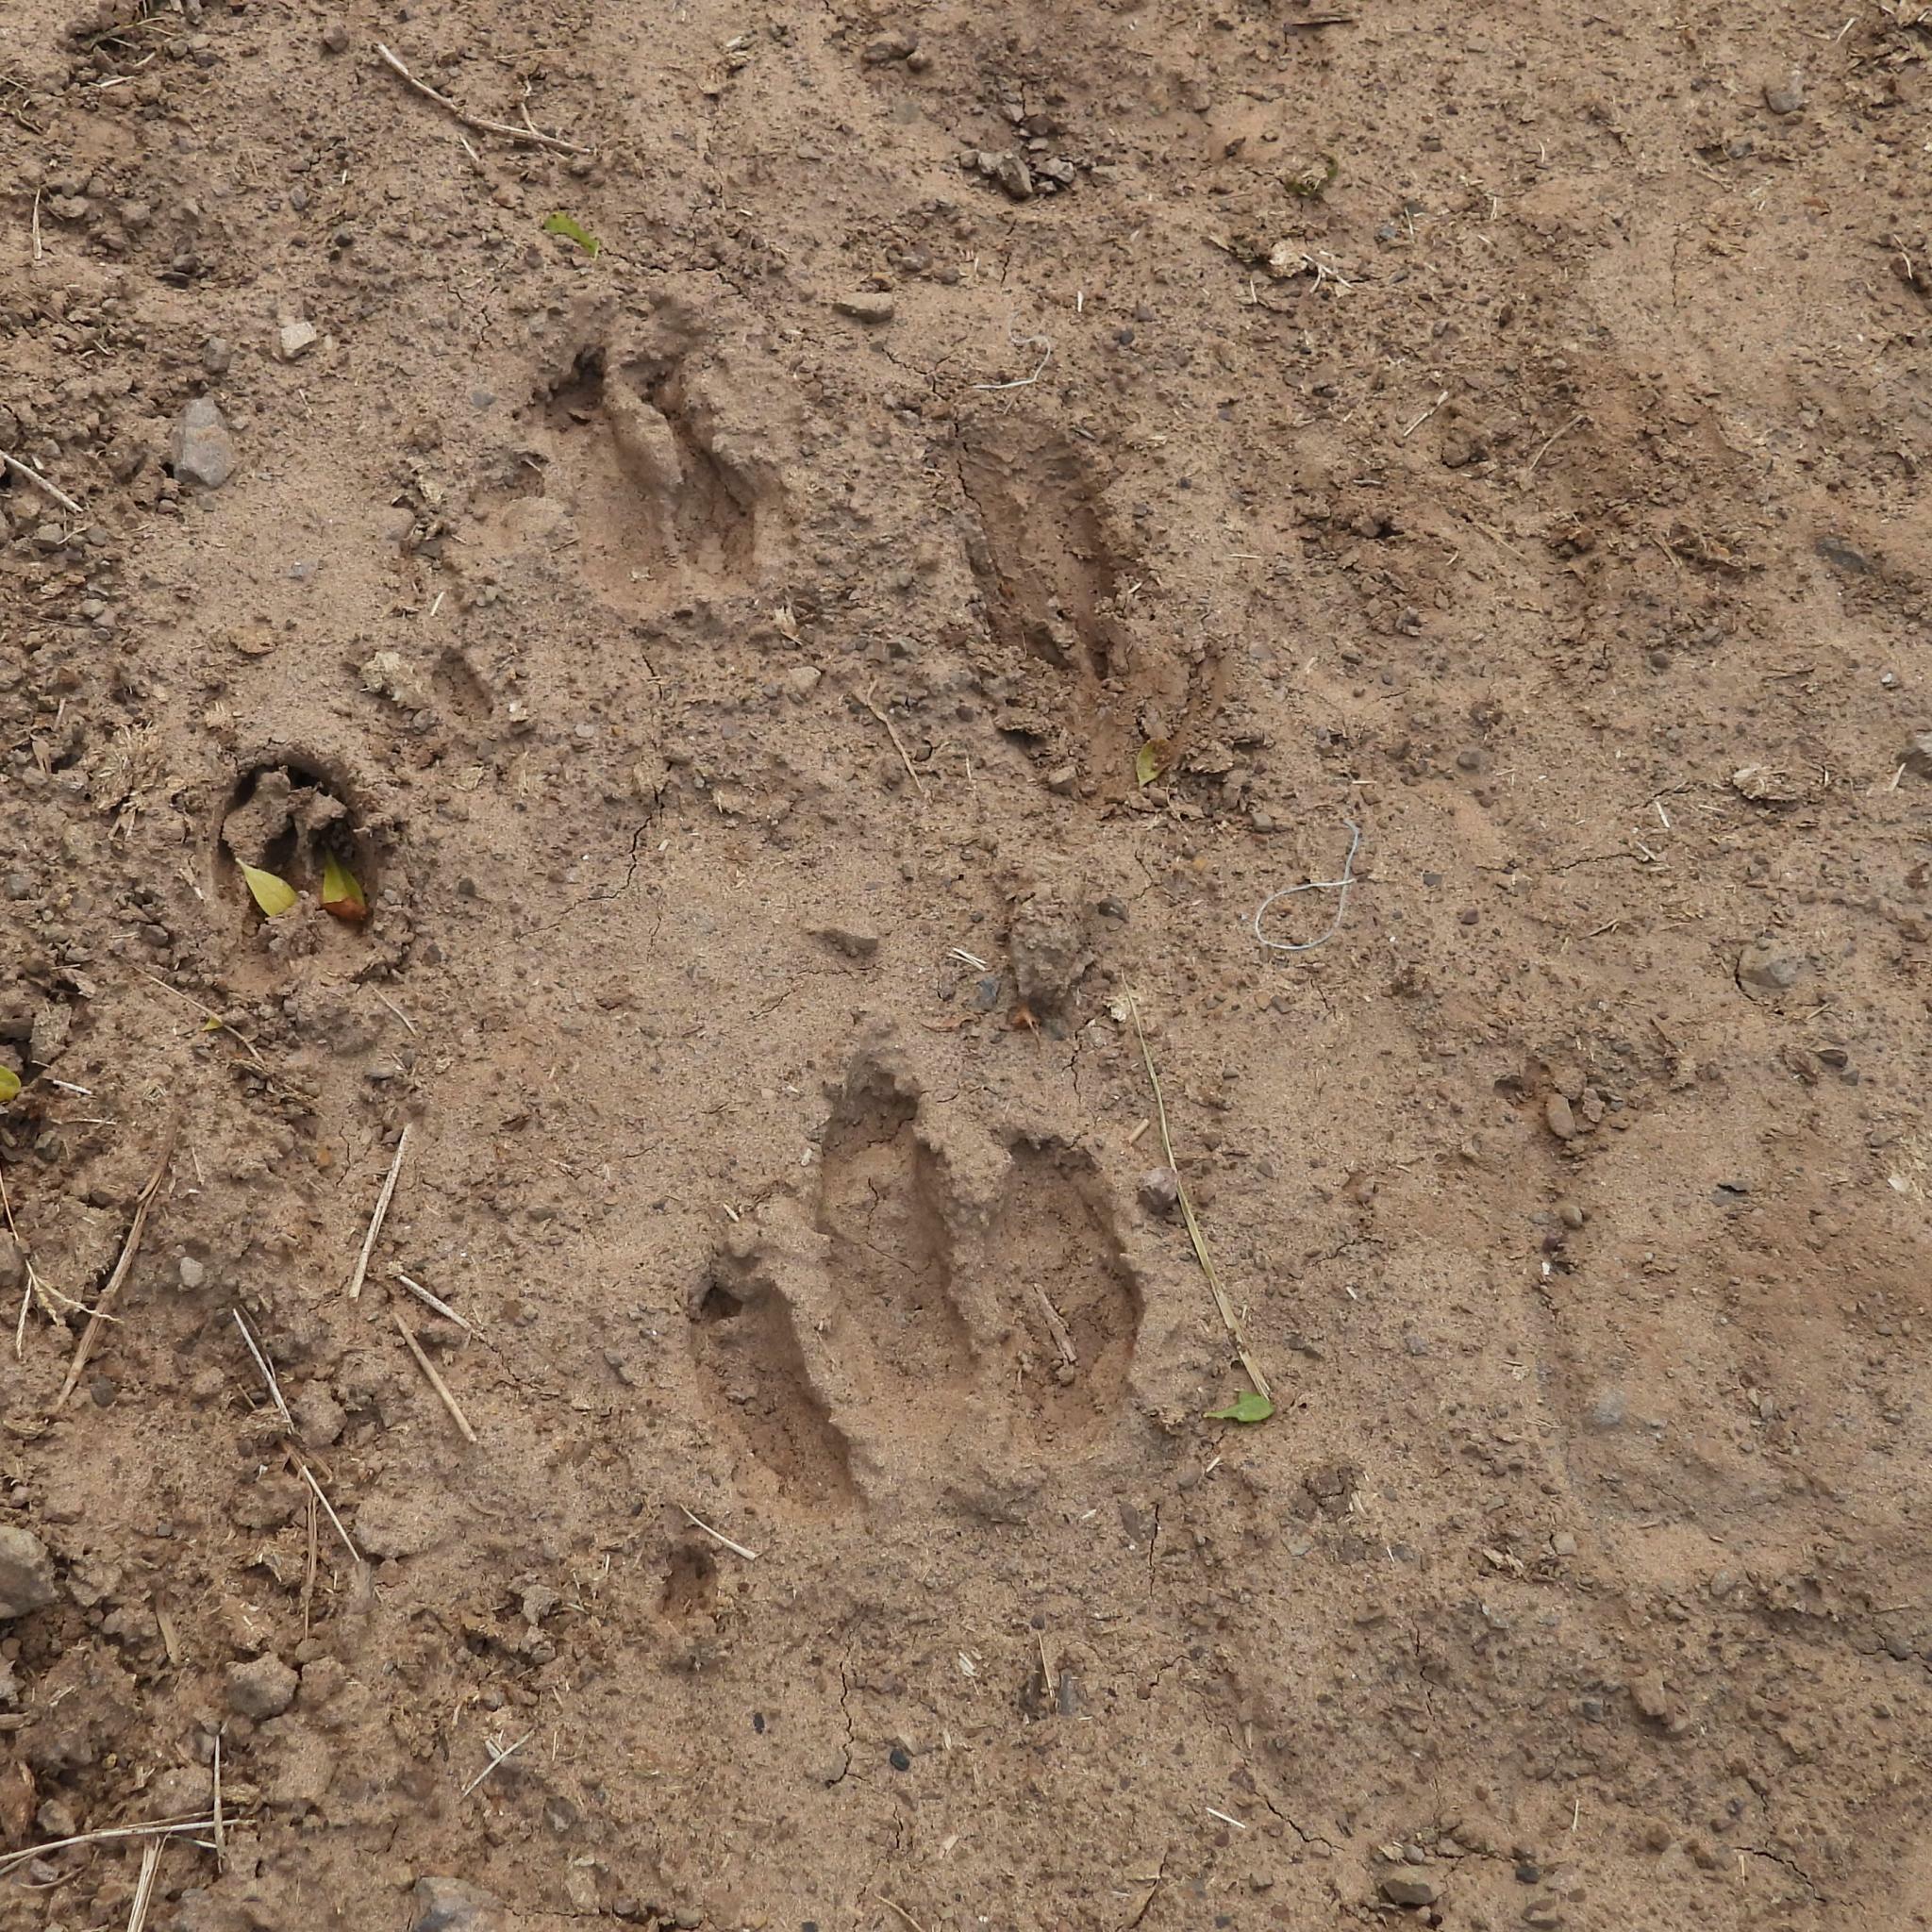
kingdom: Animalia
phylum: Chordata
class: Mammalia
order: Tubulidentata
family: Orycteropodidae
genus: Orycteropus
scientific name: Orycteropus afer
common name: Aardvark
